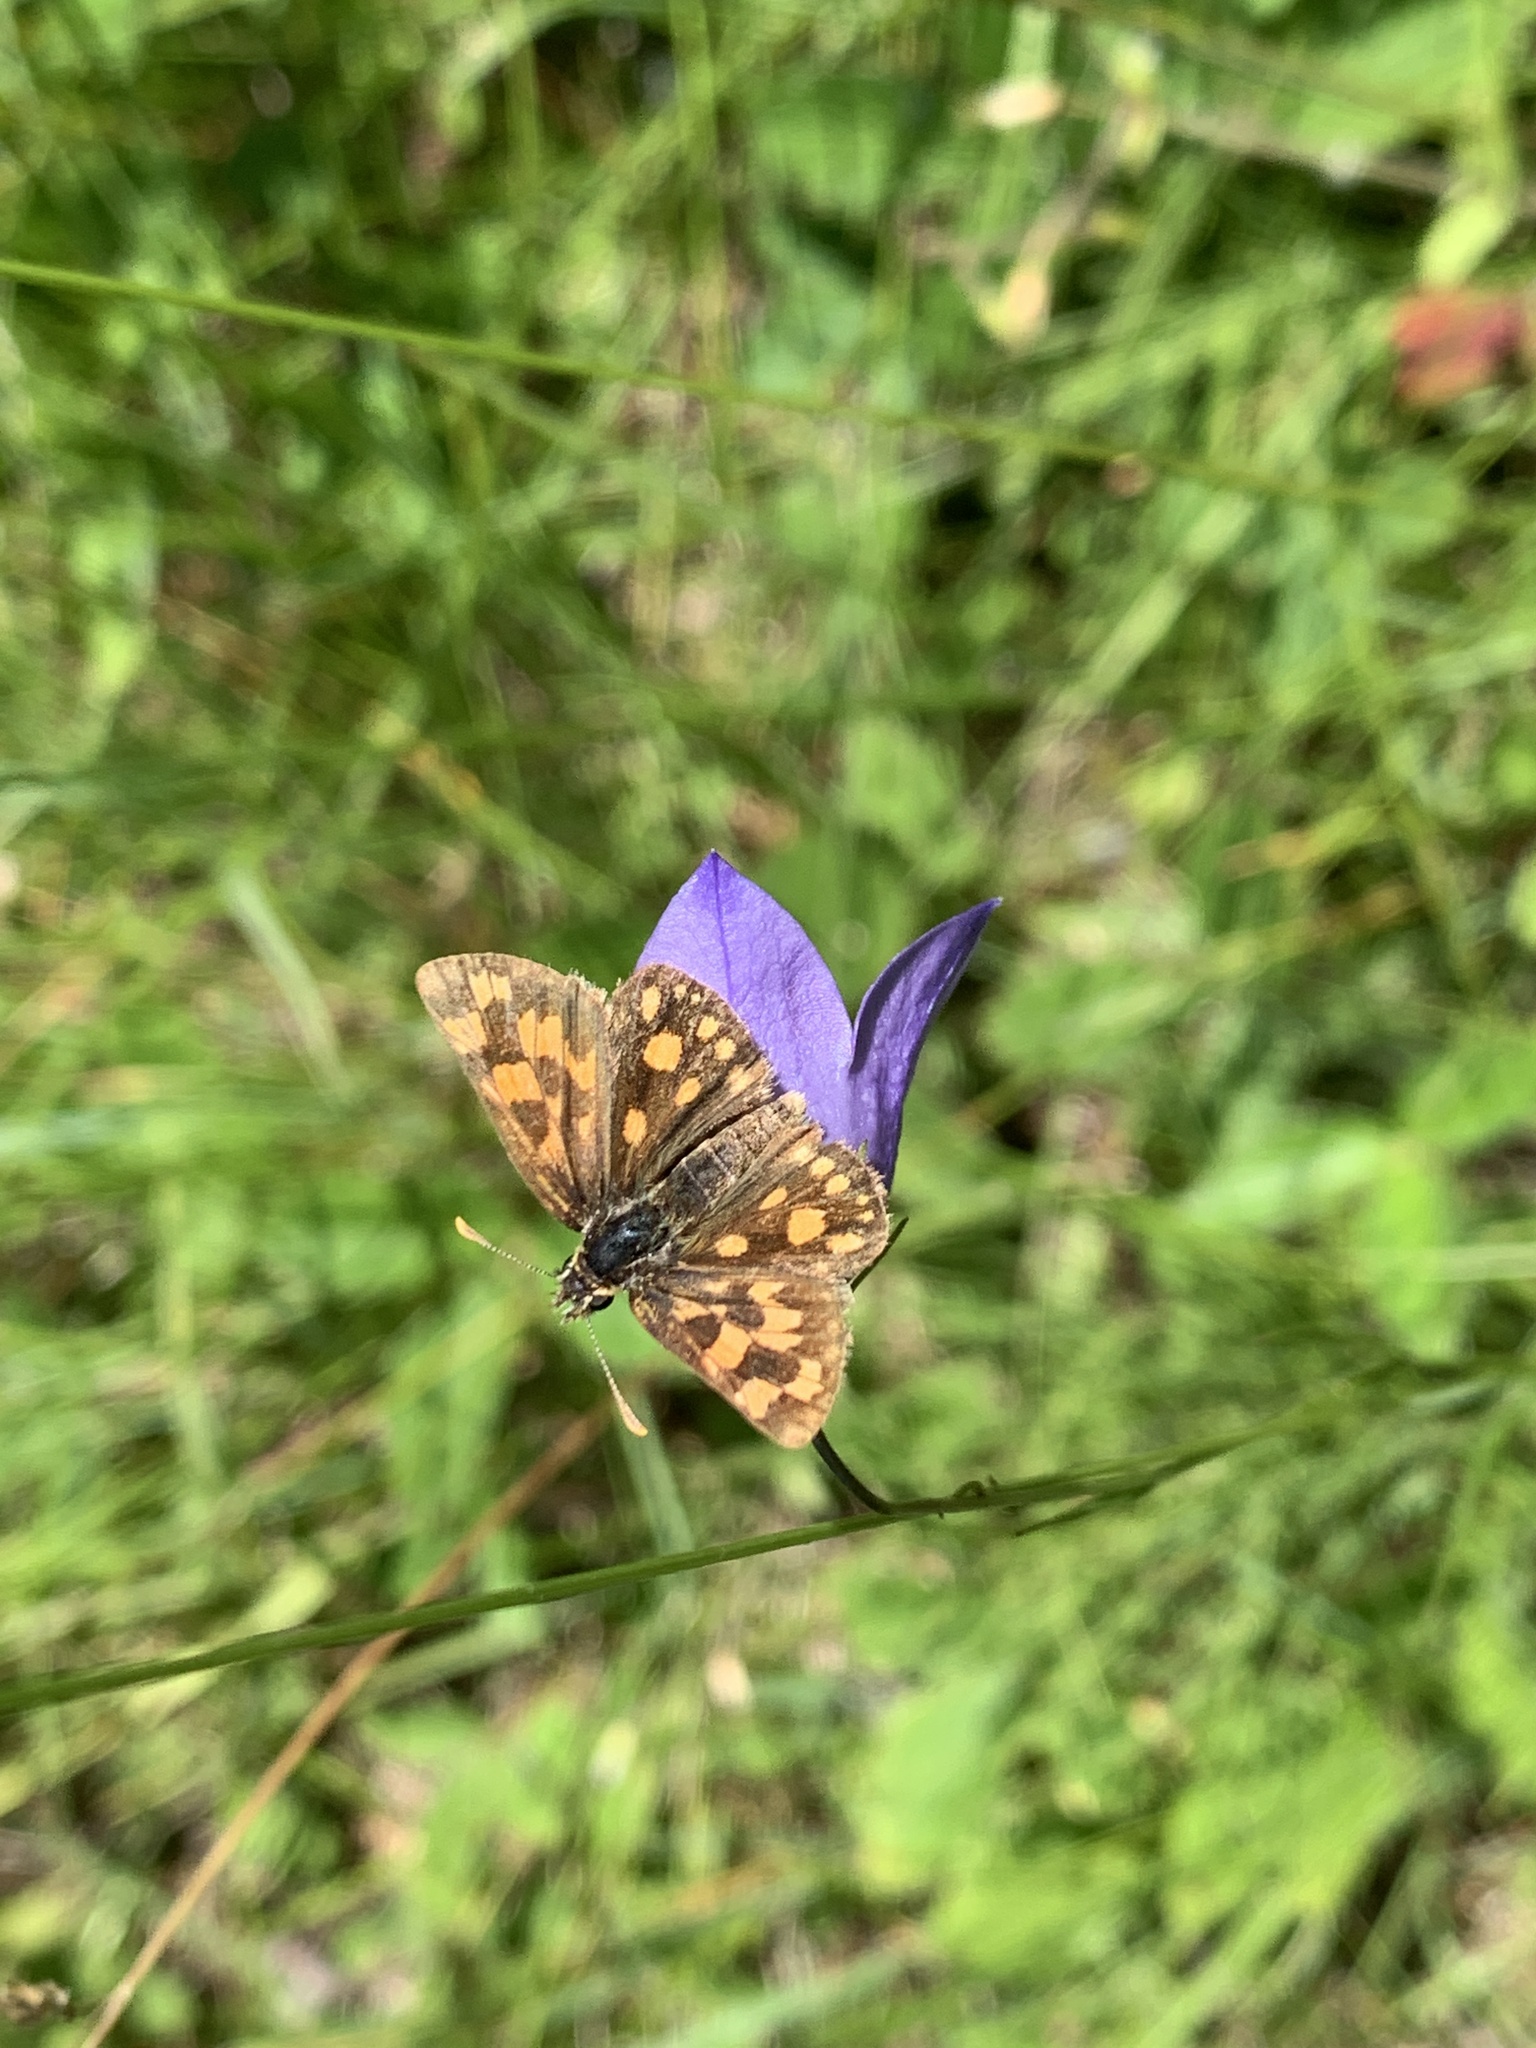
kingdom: Animalia
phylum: Arthropoda
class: Insecta
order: Lepidoptera
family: Hesperiidae
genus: Carterocephalus
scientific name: Carterocephalus mandan
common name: Arctic skipperling
